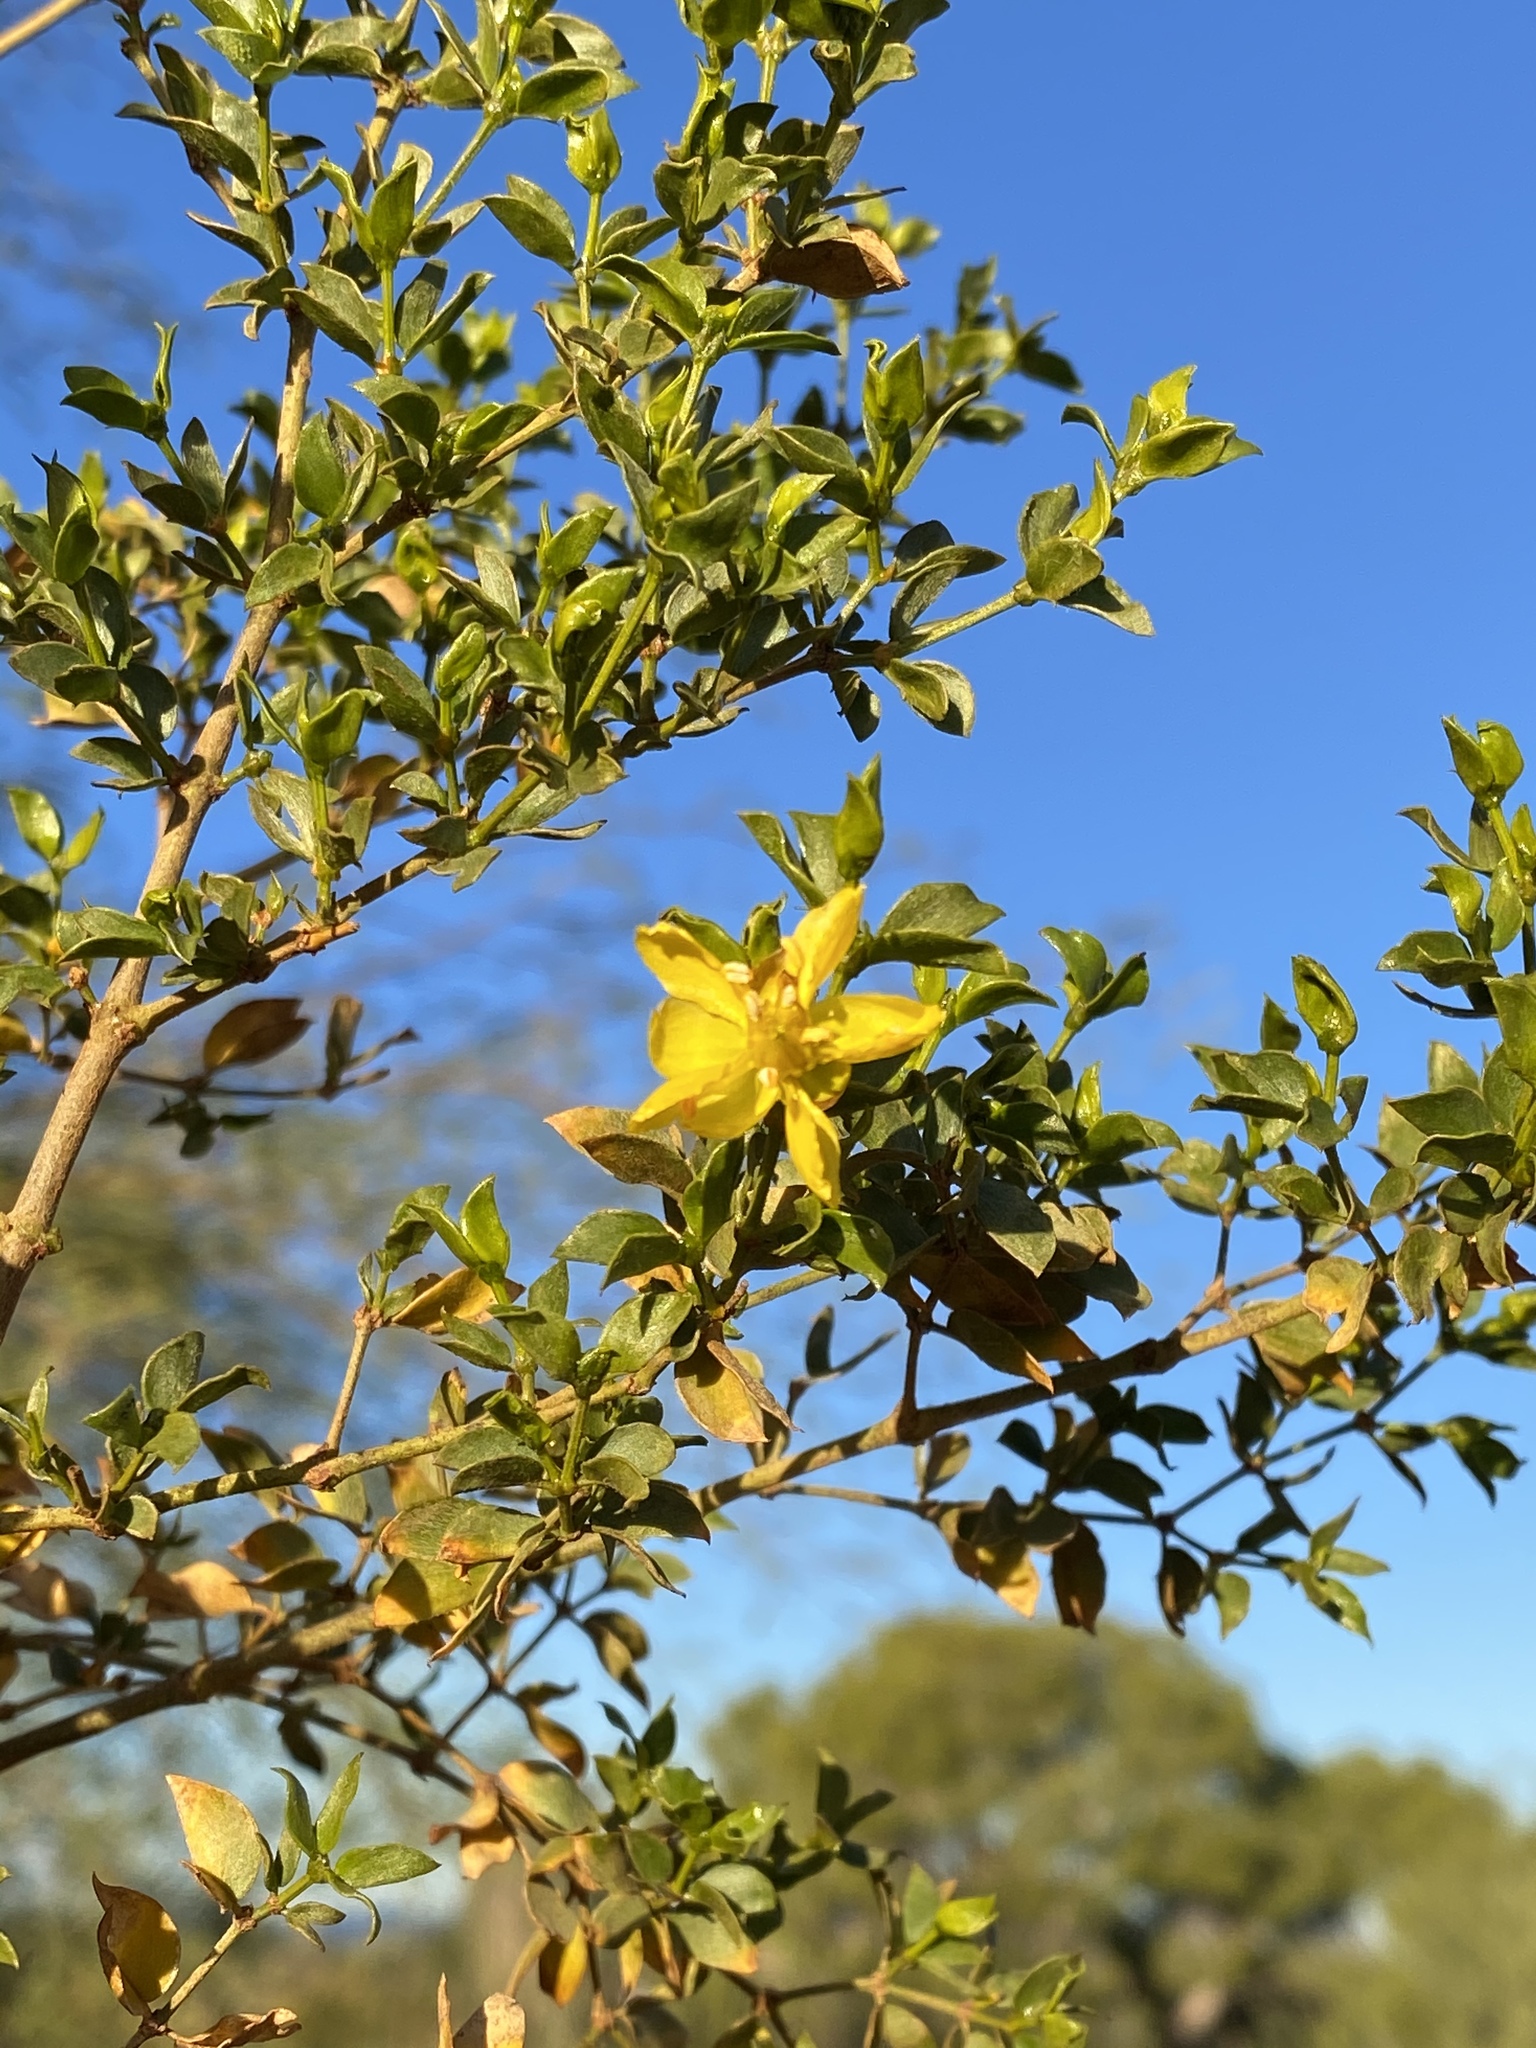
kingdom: Plantae
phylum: Tracheophyta
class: Magnoliopsida
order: Zygophyllales
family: Zygophyllaceae
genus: Larrea
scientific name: Larrea tridentata
